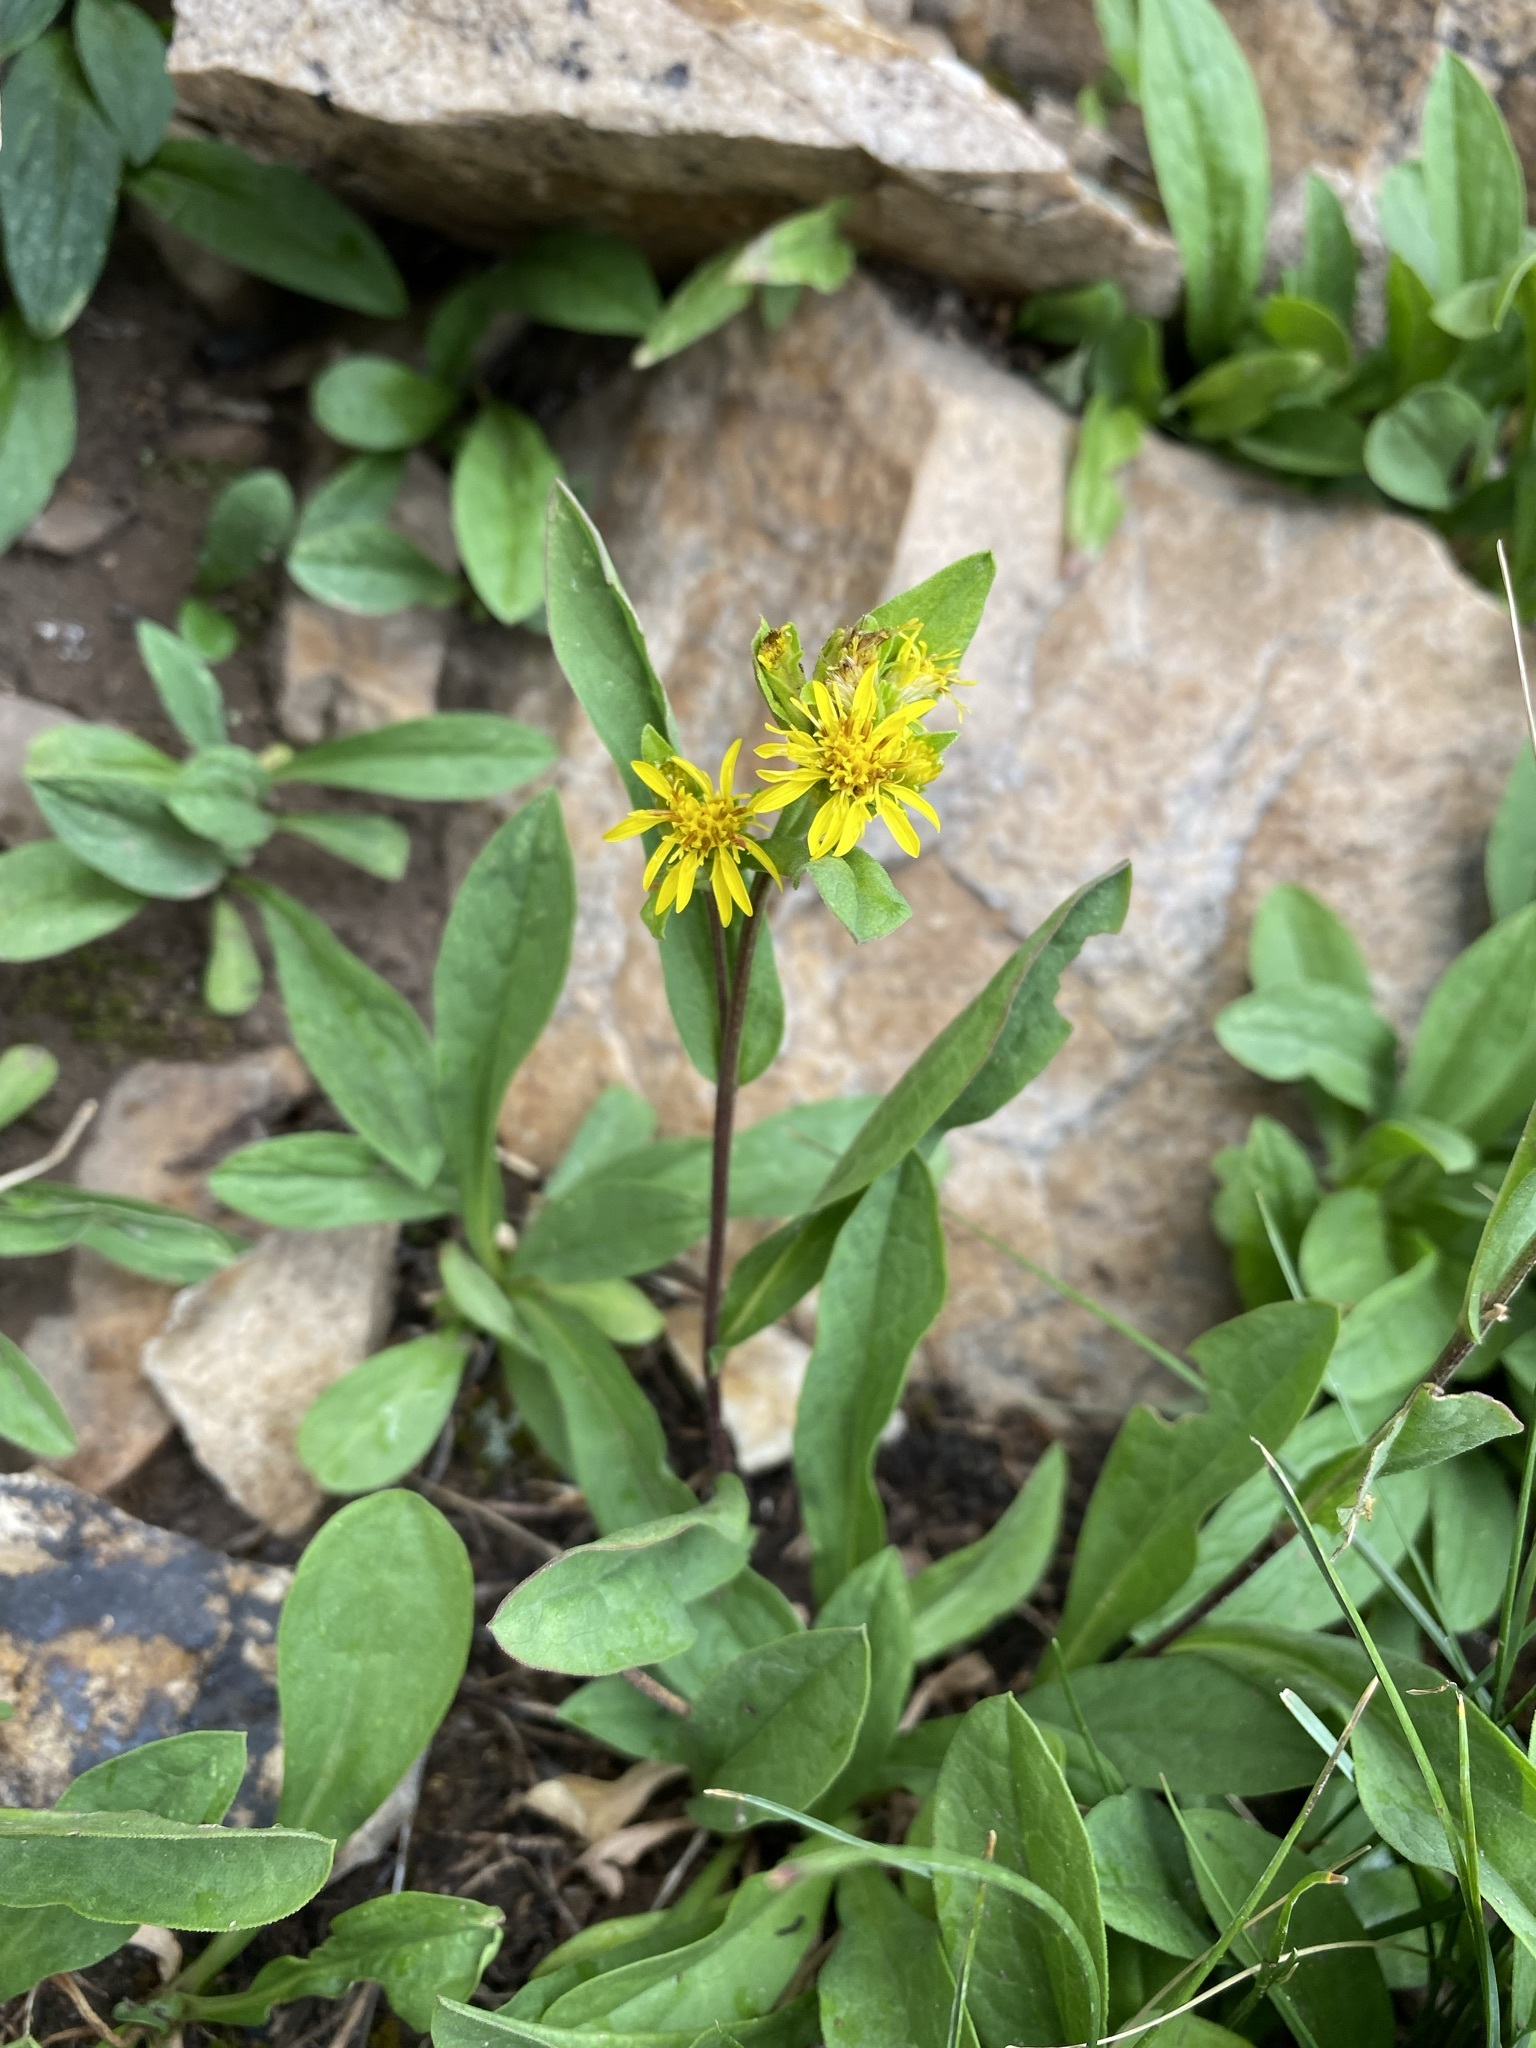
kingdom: Plantae
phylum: Tracheophyta
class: Magnoliopsida
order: Asterales
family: Asteraceae
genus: Oreochrysum
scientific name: Oreochrysum parryi
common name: Parry's goldenweed
